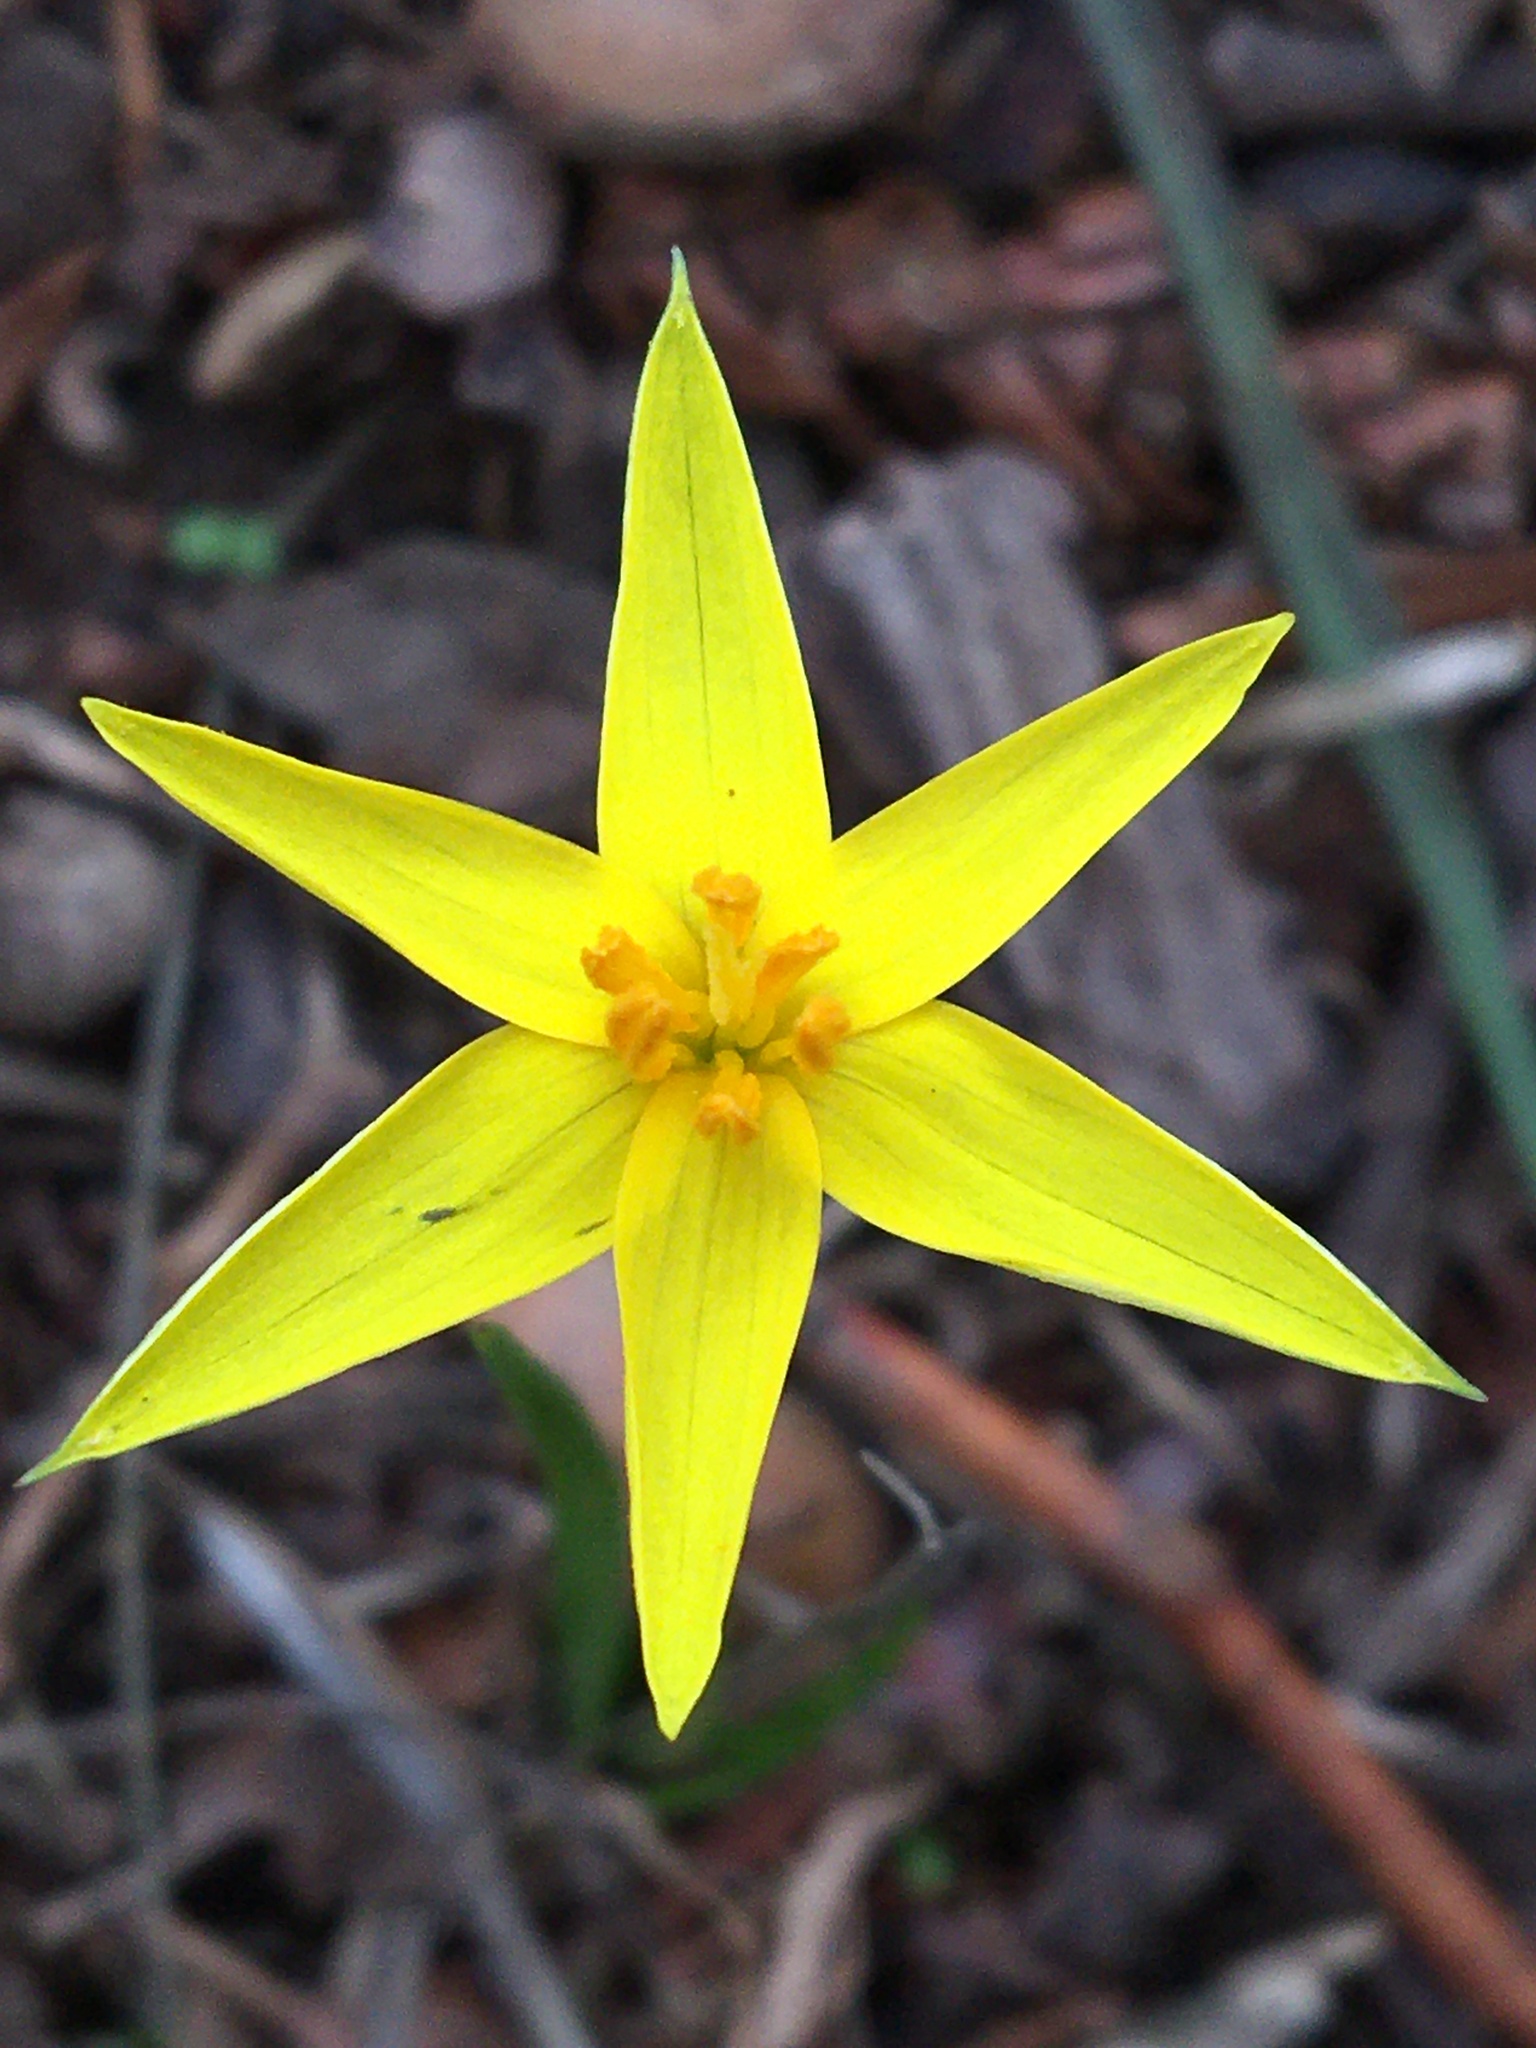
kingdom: Plantae
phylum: Tracheophyta
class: Liliopsida
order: Asparagales
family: Hypoxidaceae
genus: Empodium
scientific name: Empodium plicatum
